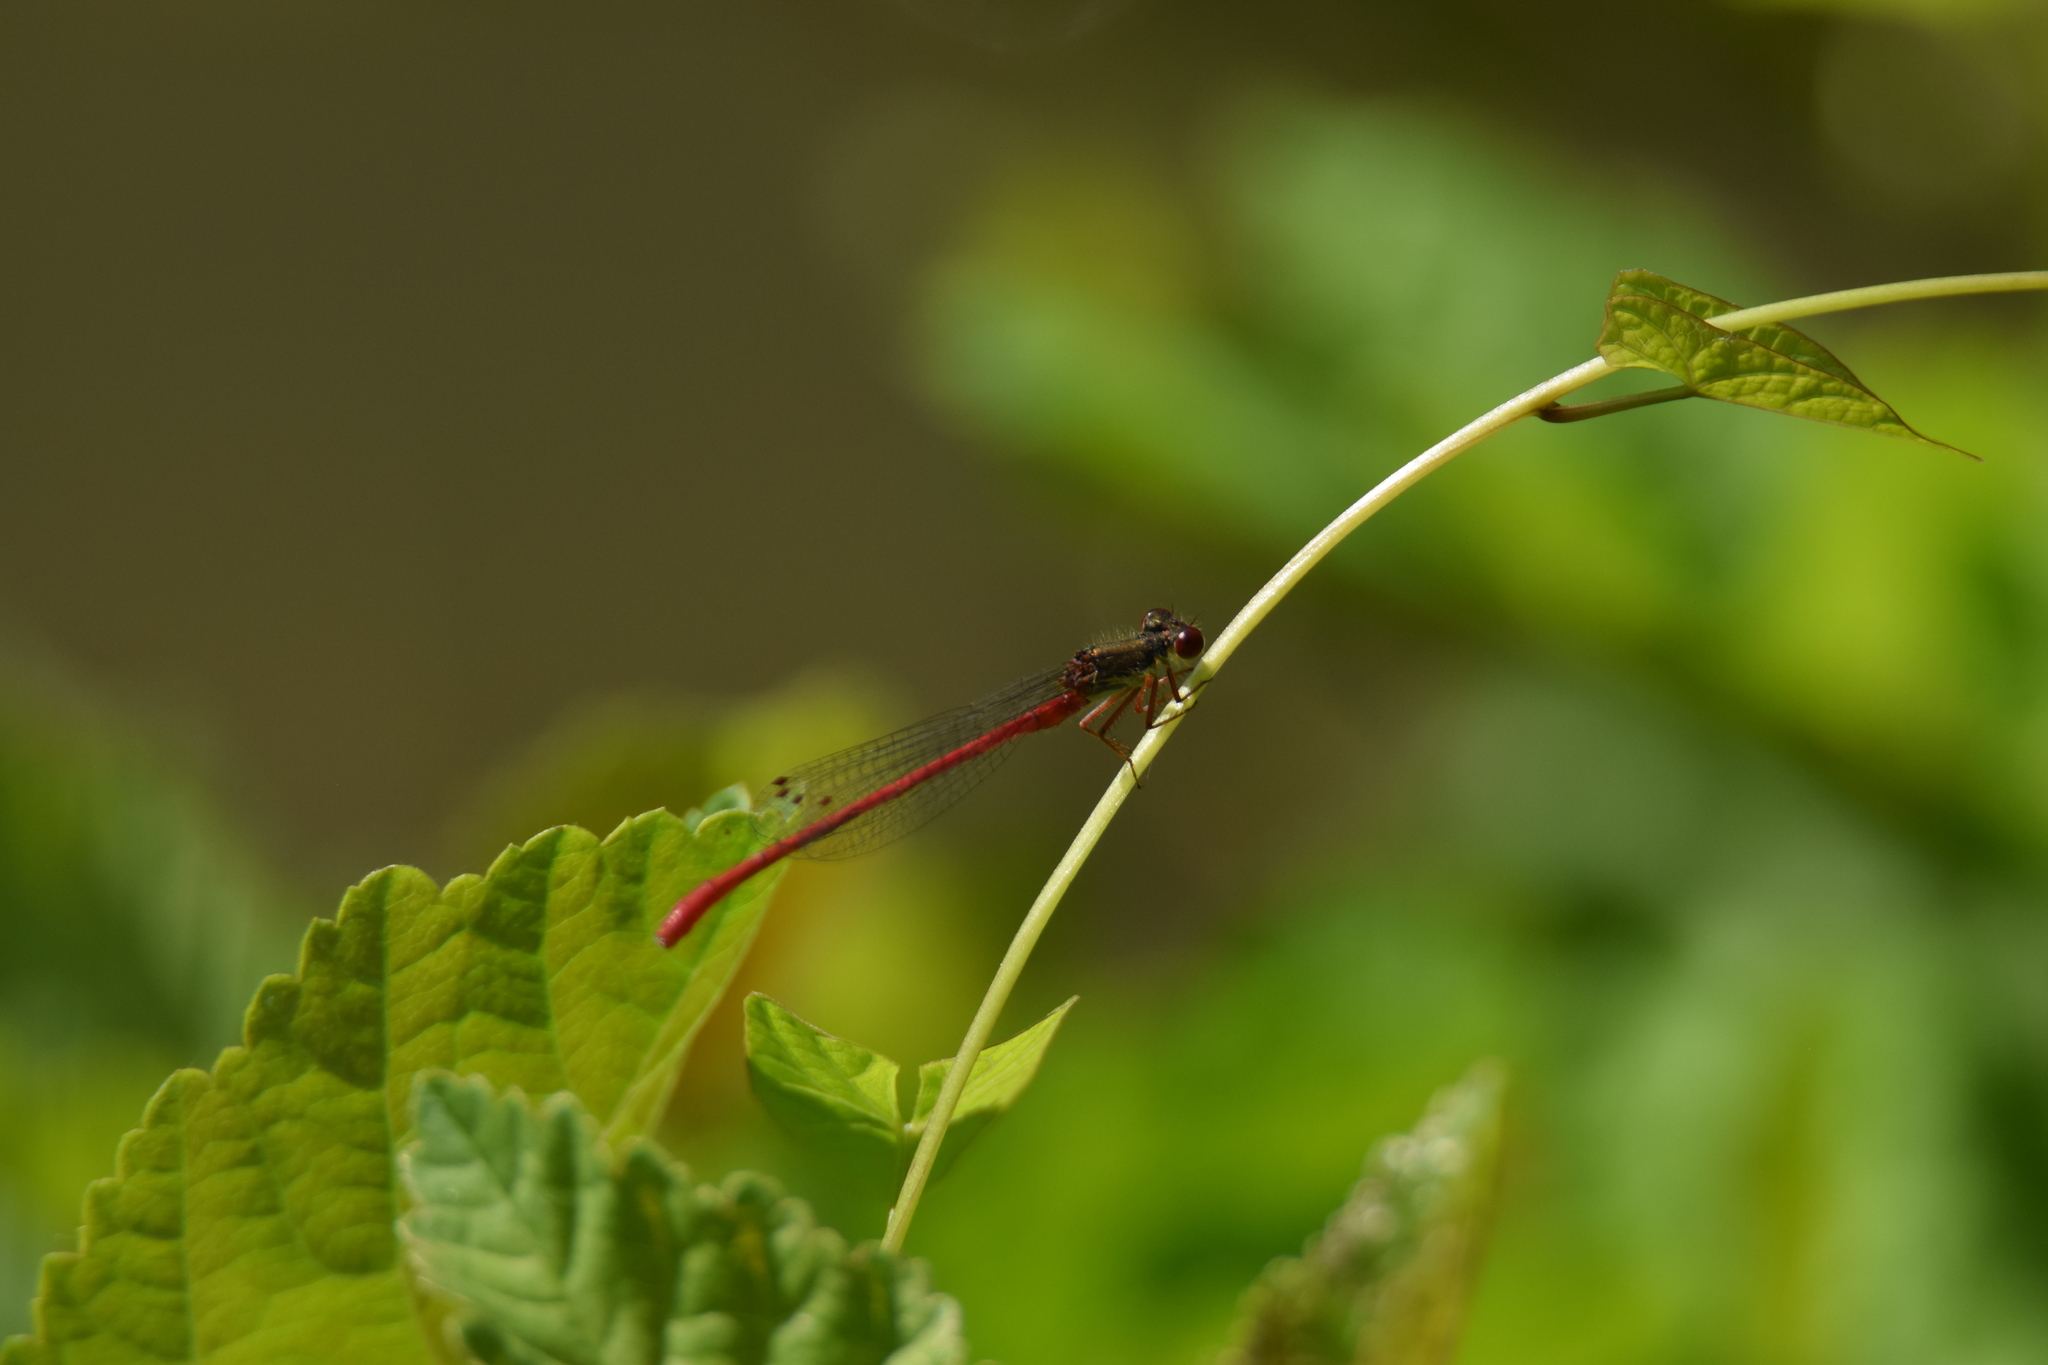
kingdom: Animalia
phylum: Arthropoda
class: Insecta
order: Odonata
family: Coenagrionidae
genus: Ceriagrion
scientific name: Ceriagrion tenellum
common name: Small red damselfly
